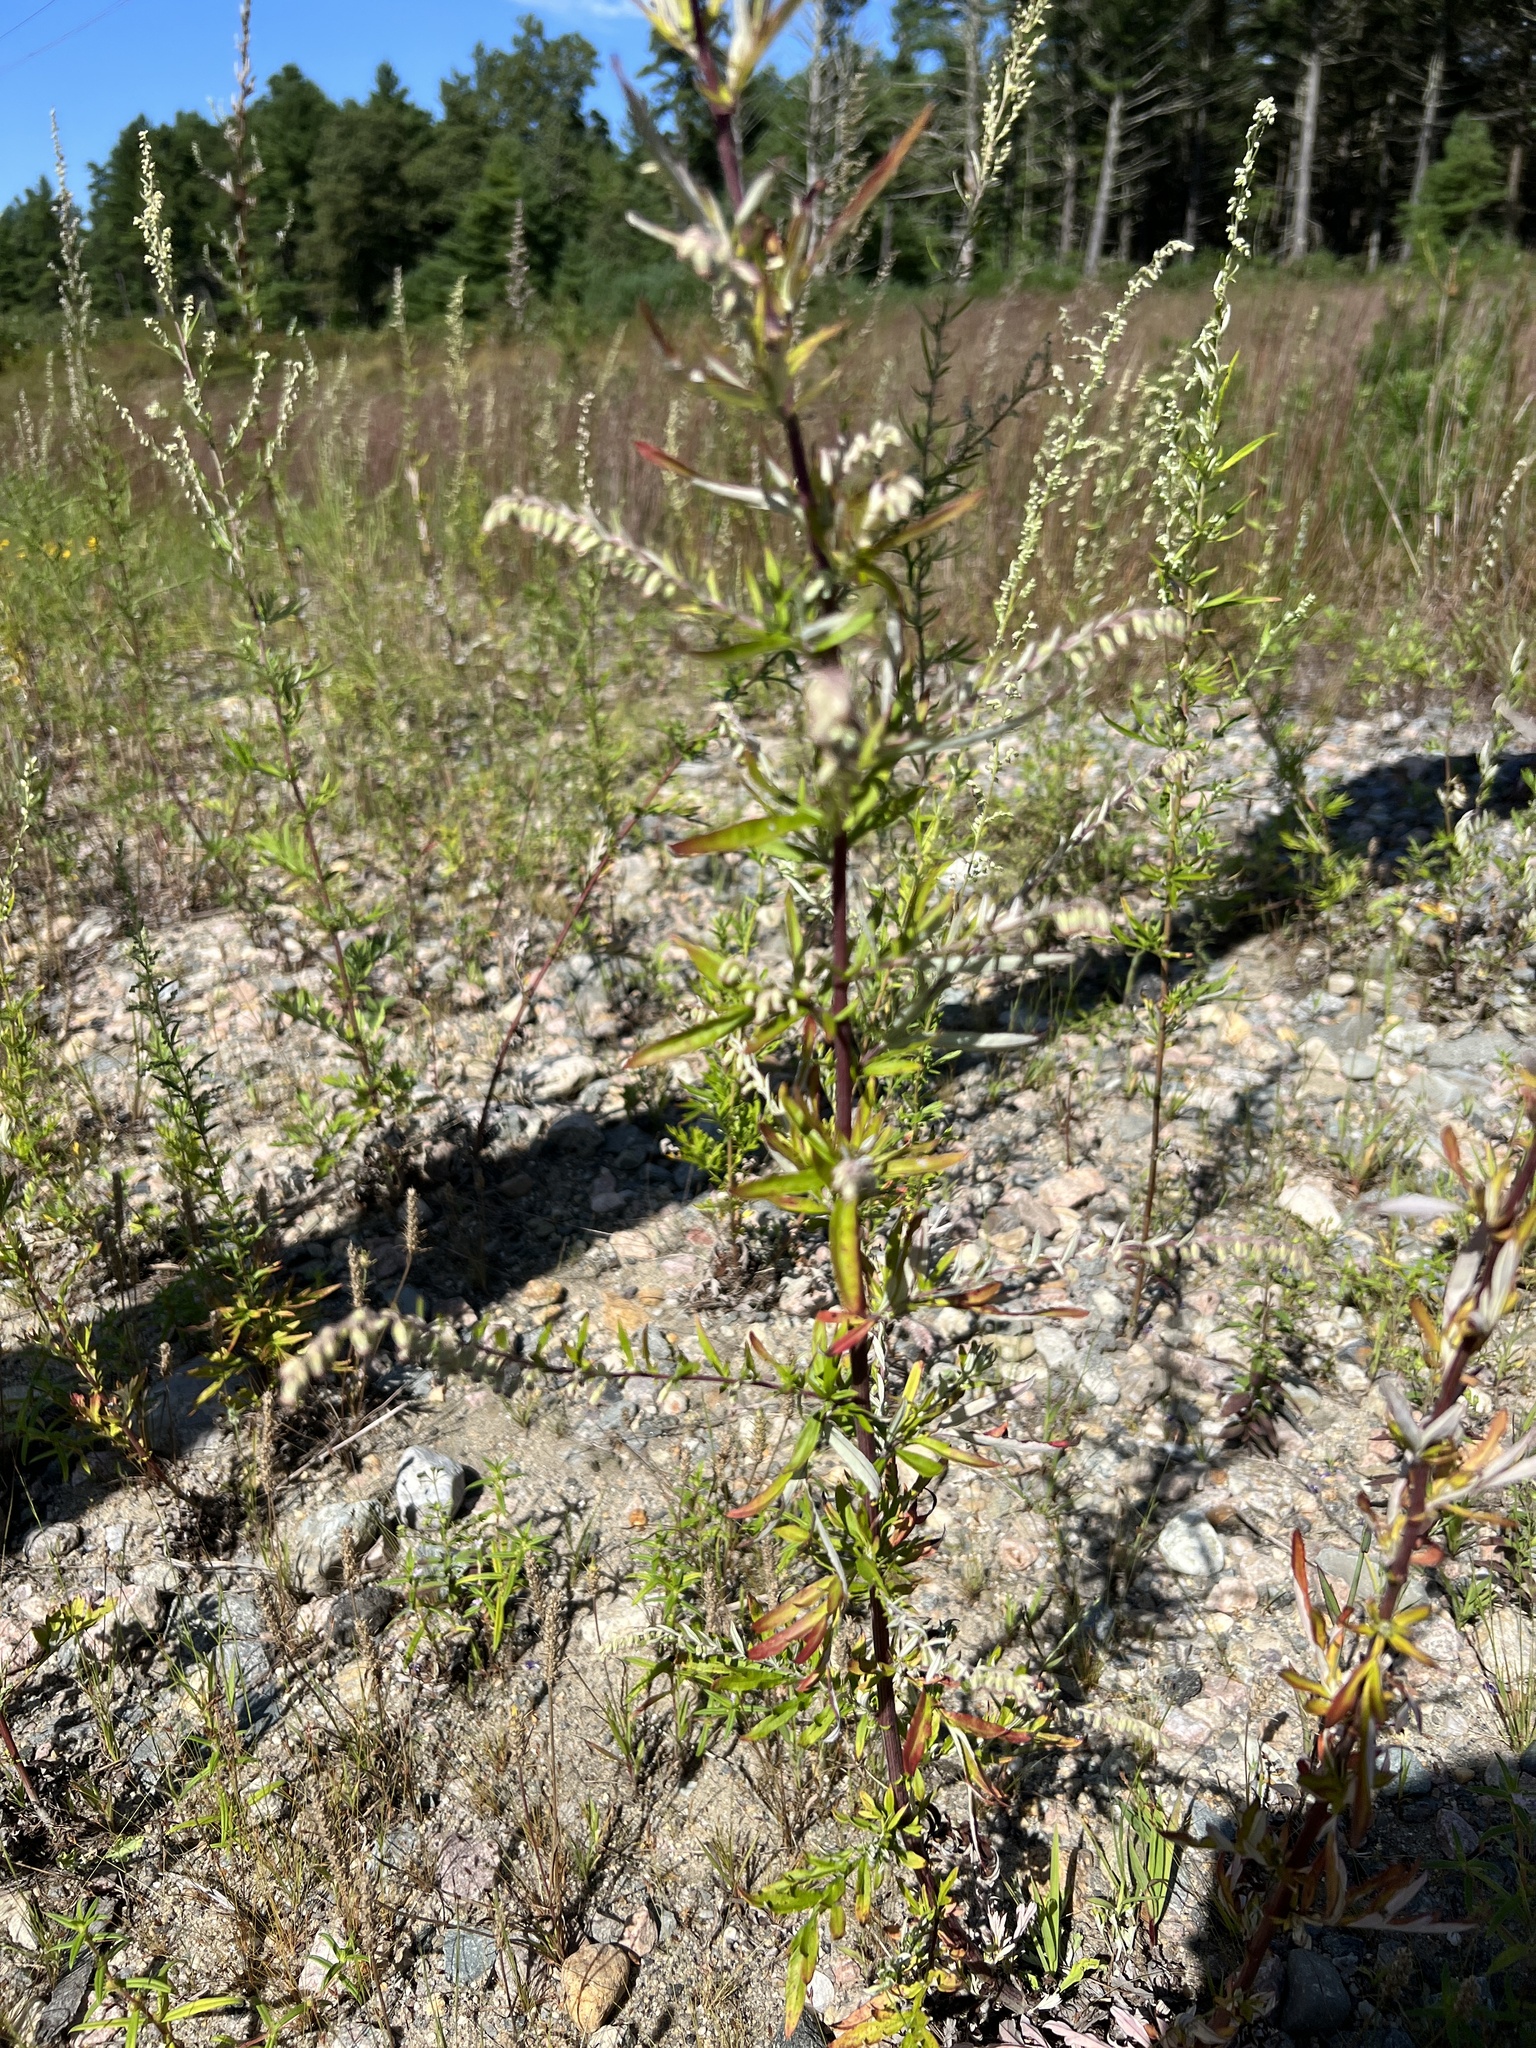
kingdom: Plantae
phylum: Tracheophyta
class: Magnoliopsida
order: Asterales
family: Asteraceae
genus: Artemisia
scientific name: Artemisia vulgaris
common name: Mugwort
